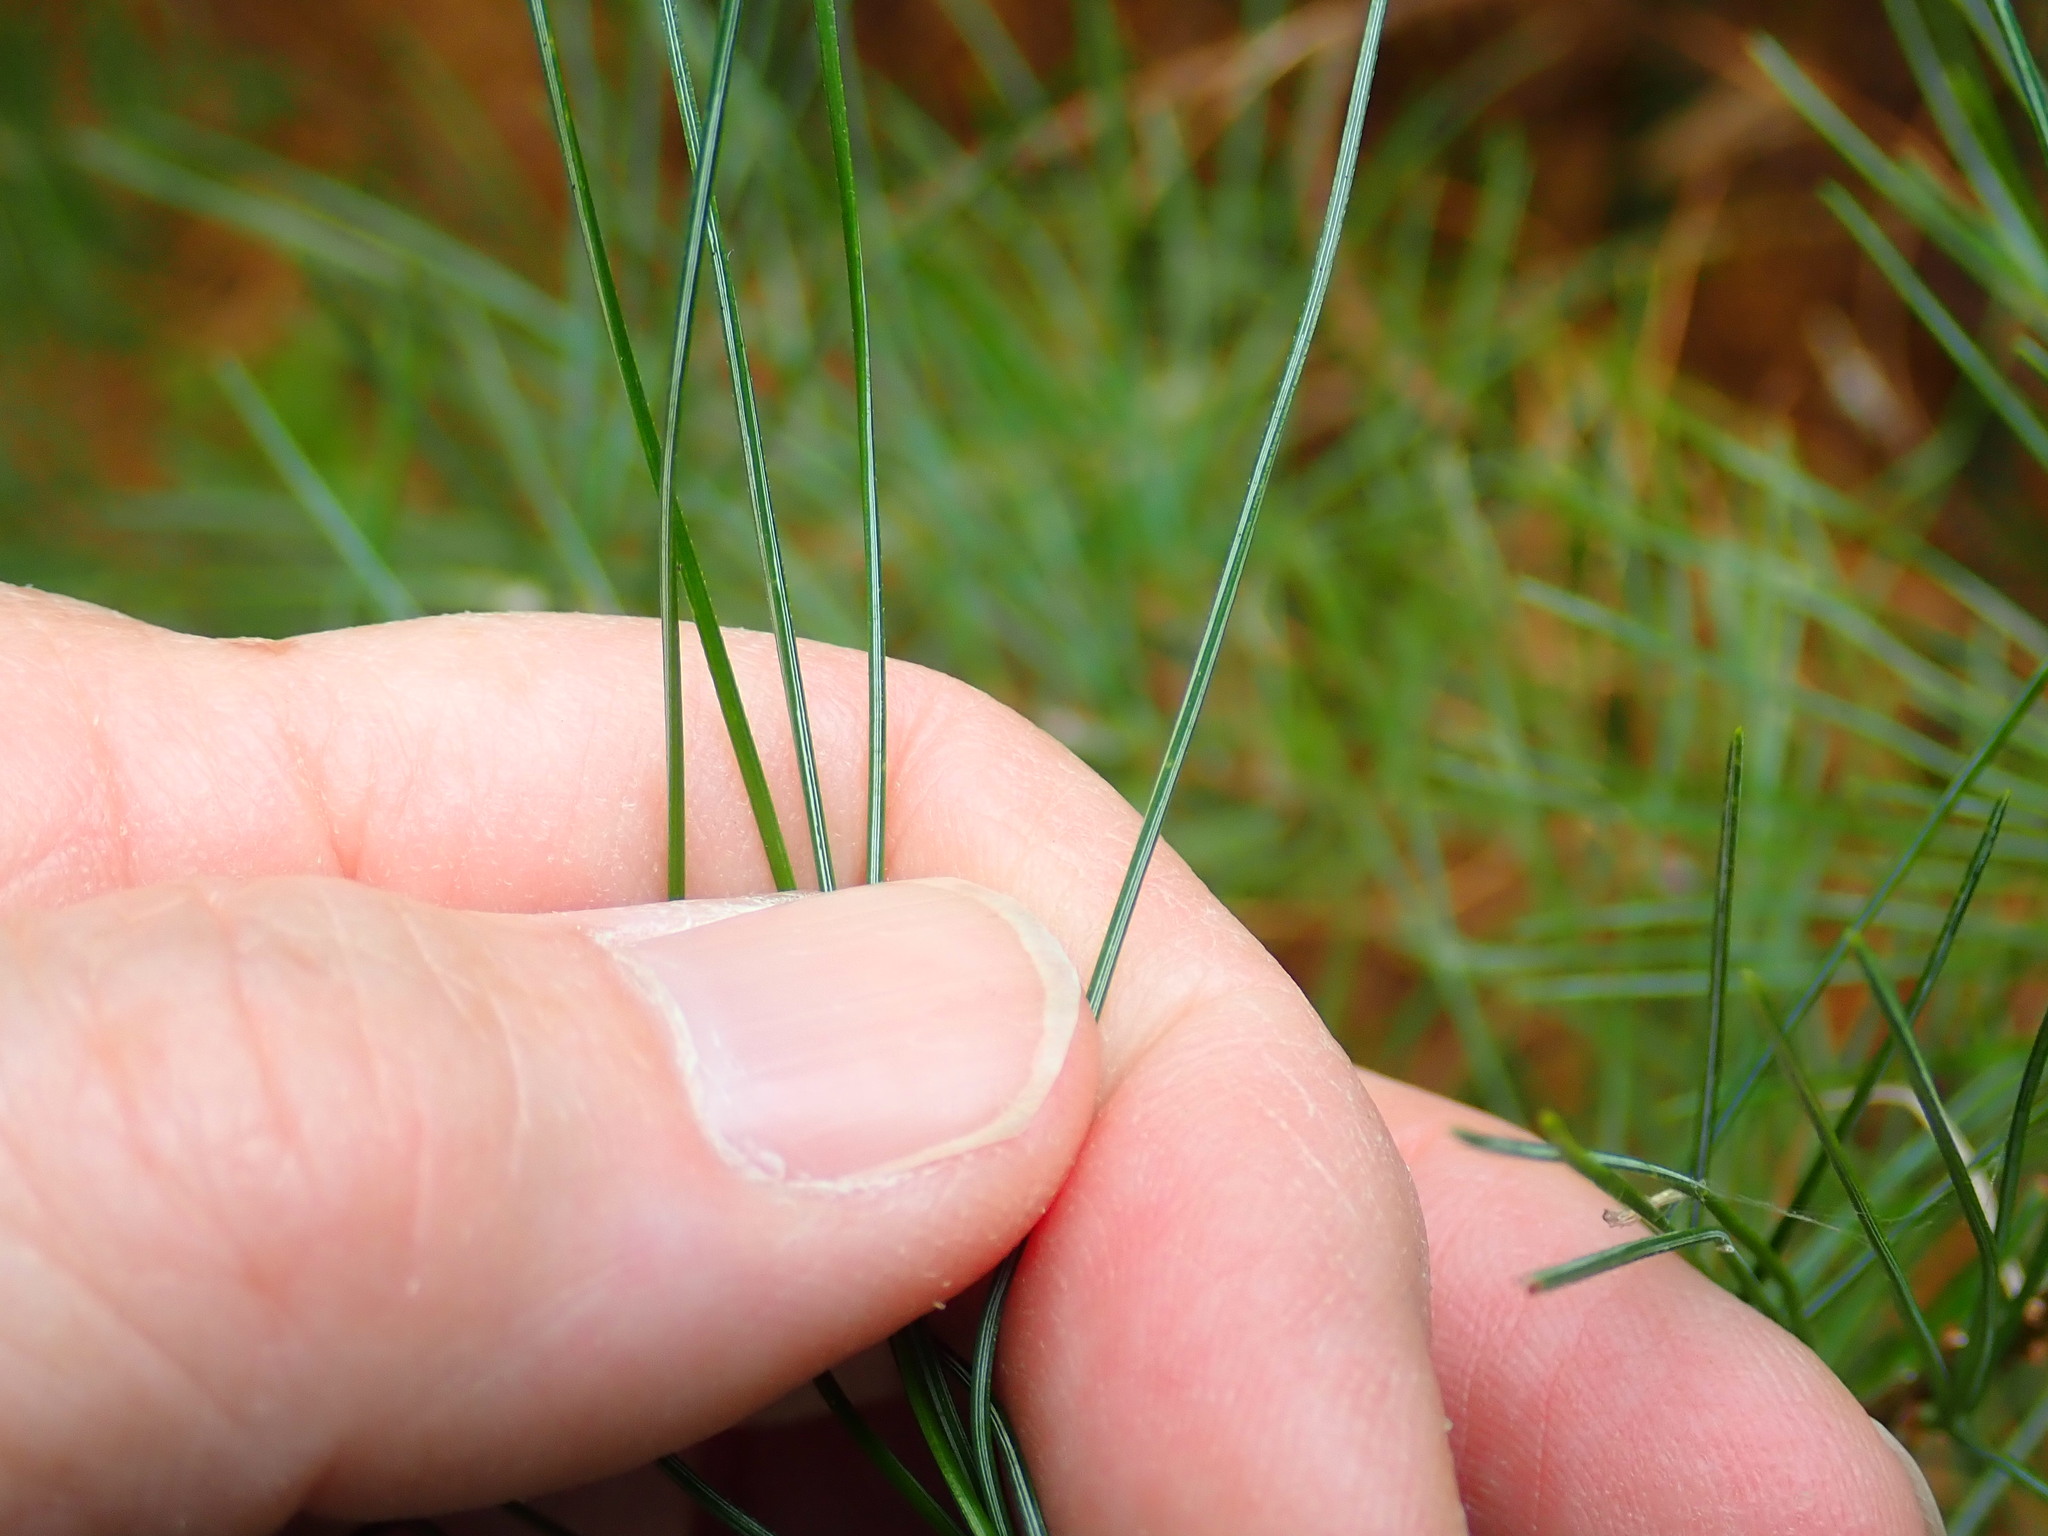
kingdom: Plantae
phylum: Tracheophyta
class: Pinopsida
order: Pinales
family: Pinaceae
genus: Pinus
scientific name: Pinus strobus
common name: Weymouth pine
